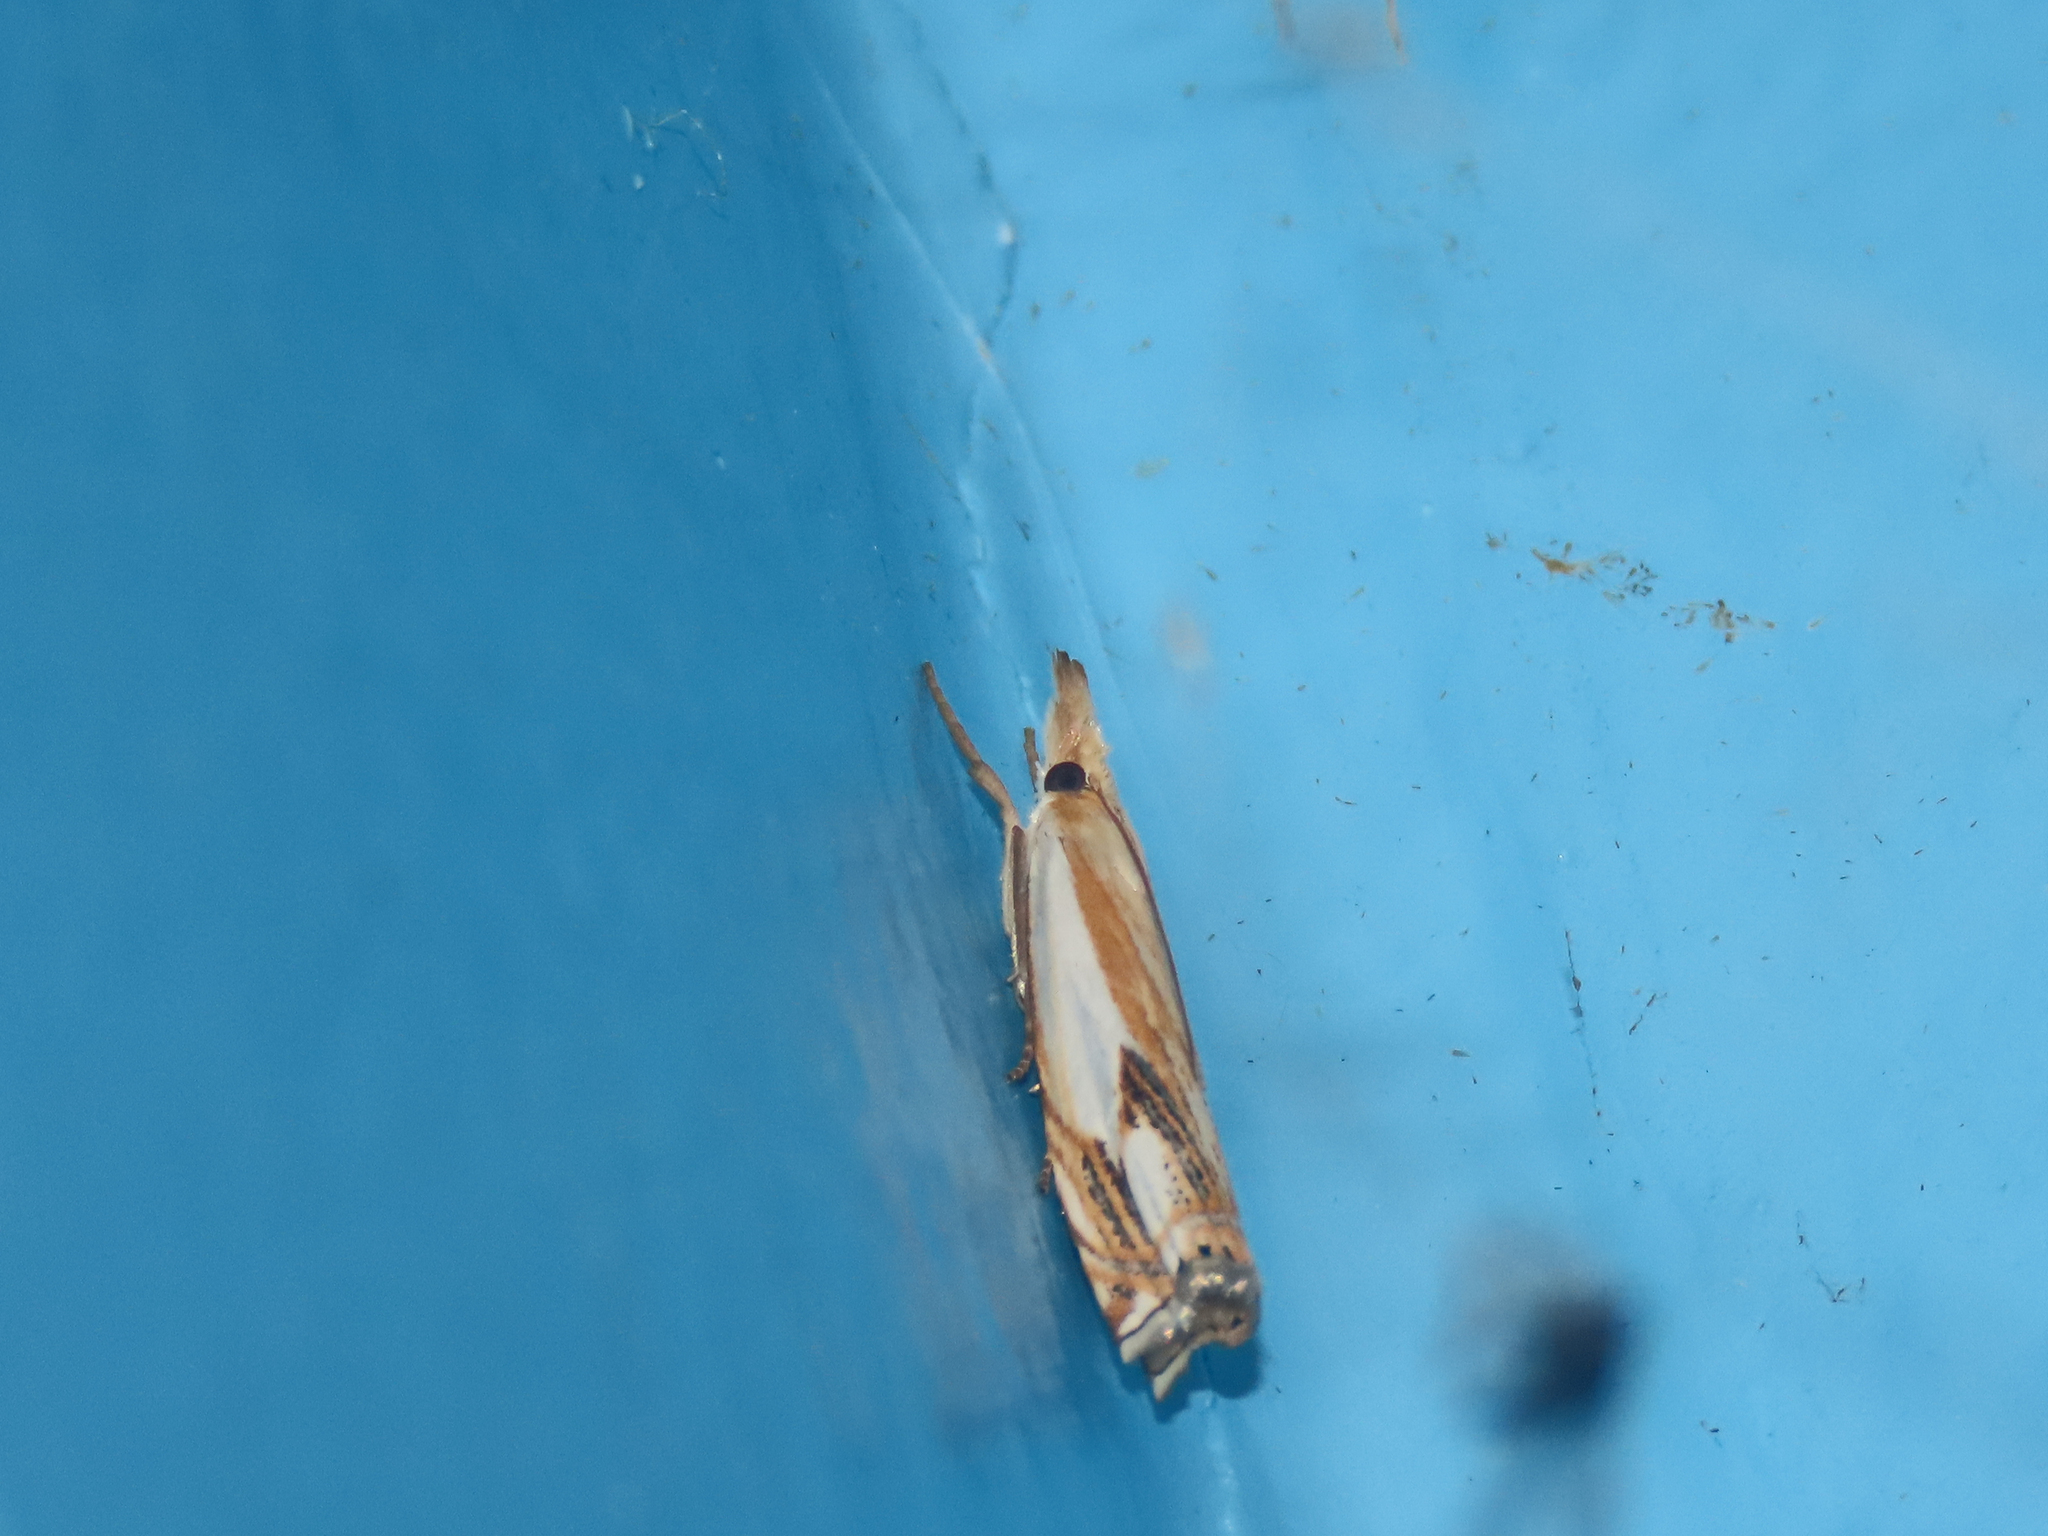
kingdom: Animalia
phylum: Arthropoda
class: Insecta
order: Lepidoptera
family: Crambidae
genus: Crambus
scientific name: Crambus agitatellus
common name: Double-banded grass-veneer
